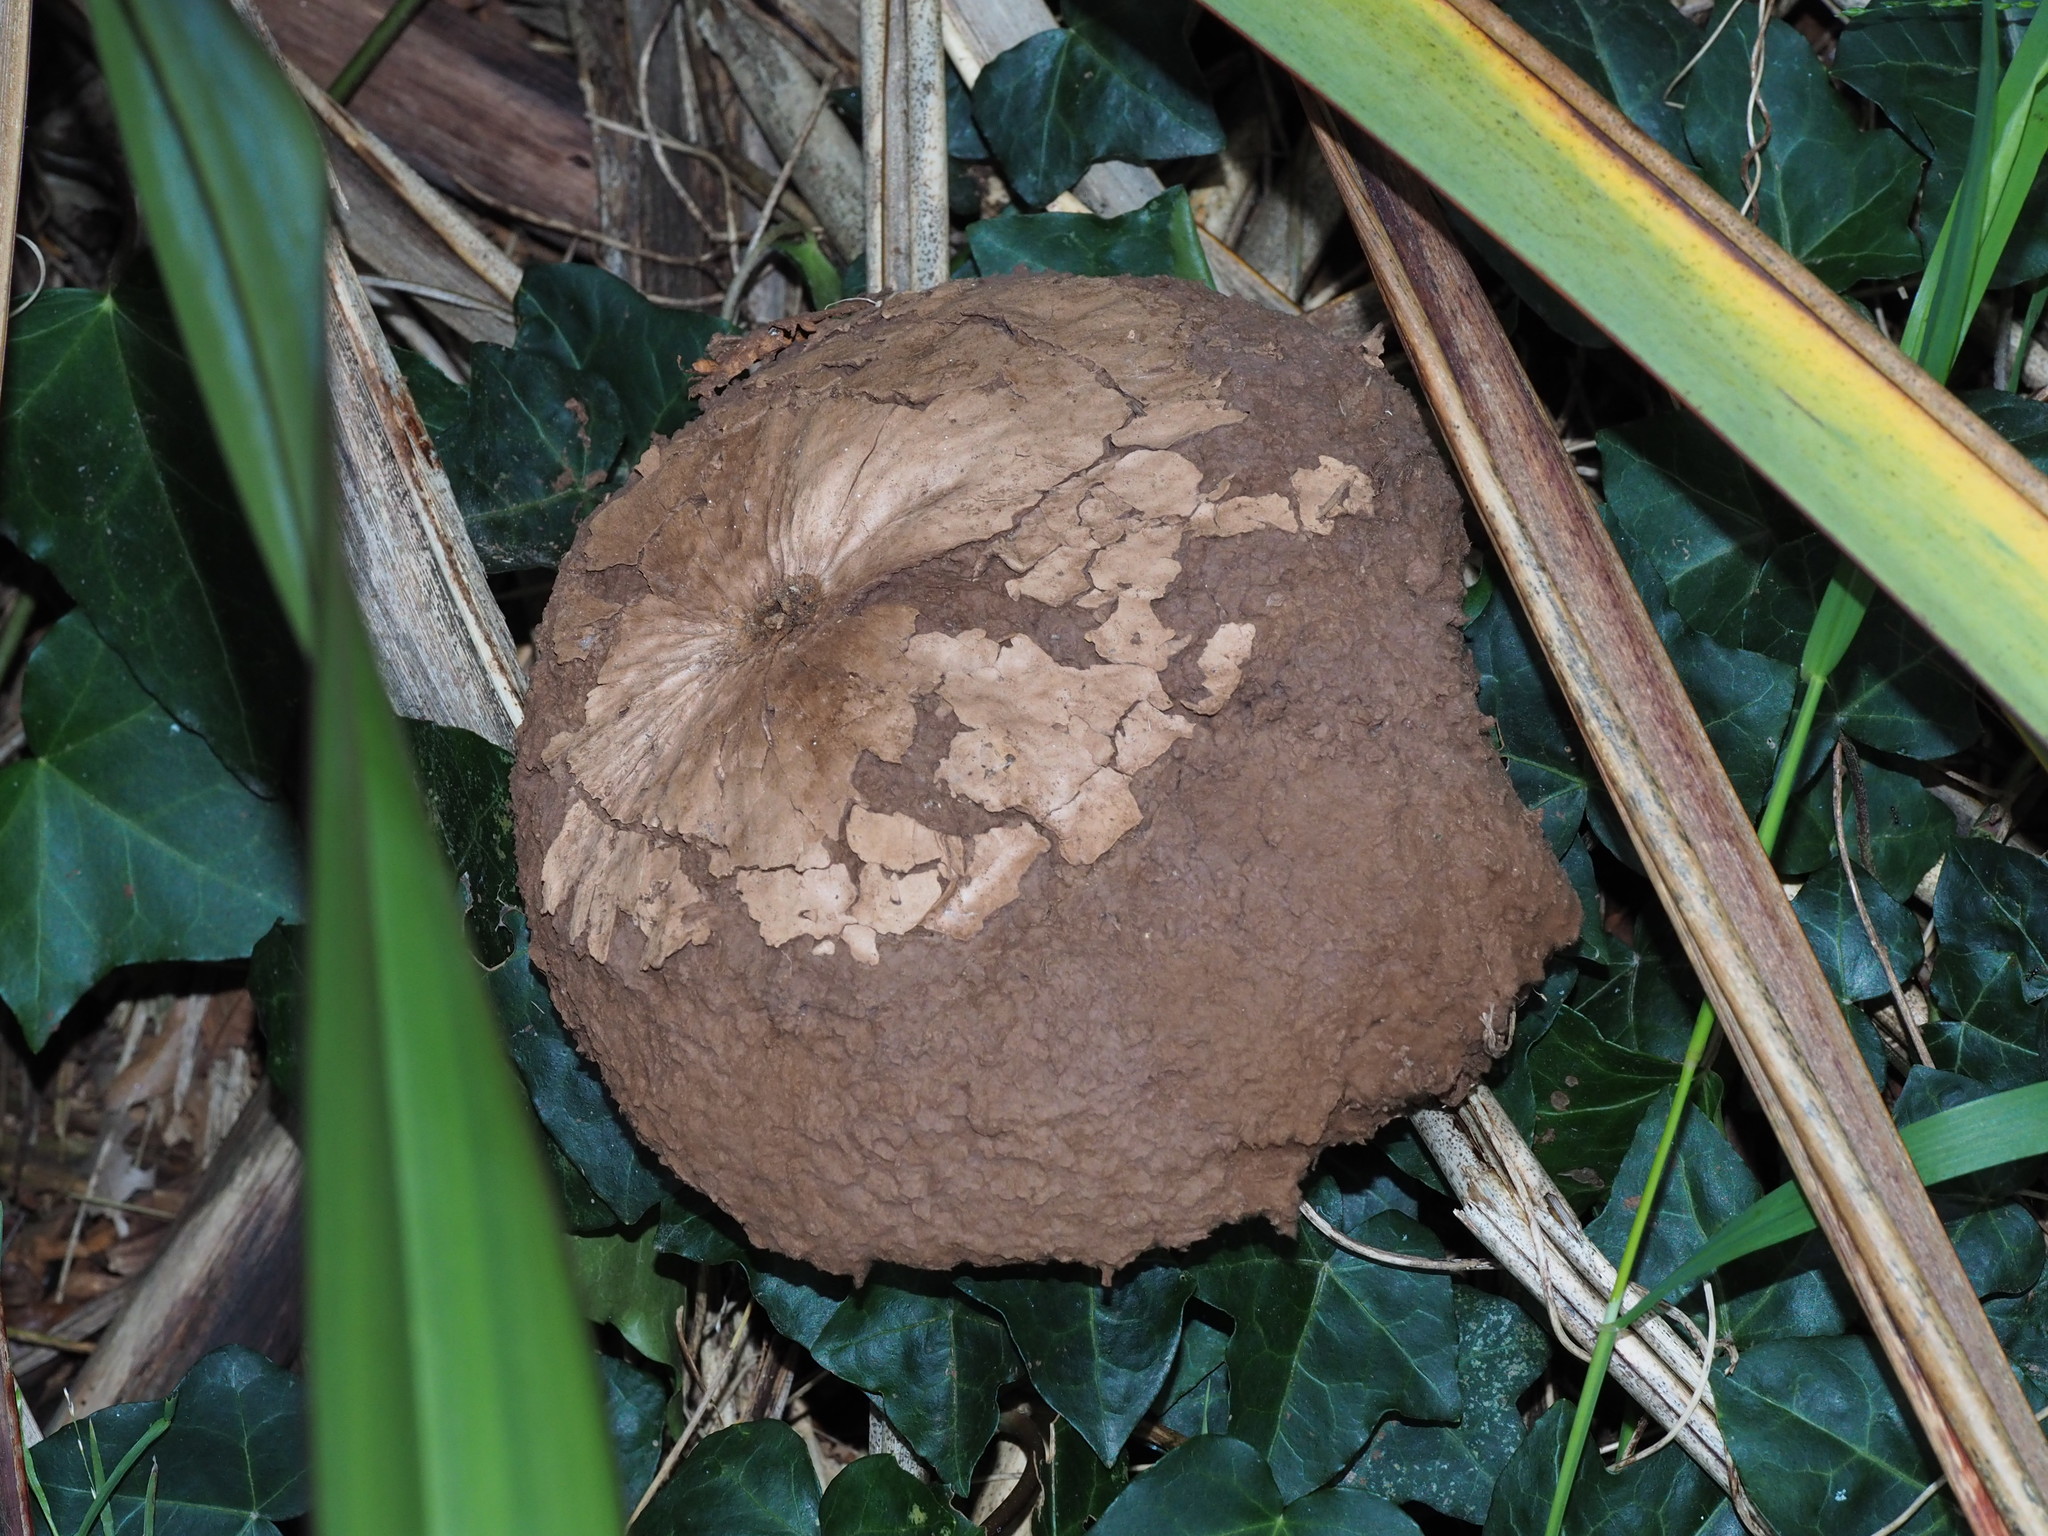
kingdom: Fungi
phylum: Basidiomycota
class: Agaricomycetes
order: Agaricales
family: Lycoperdaceae
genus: Calvatia
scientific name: Calvatia gigantea
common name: Giant puffball
